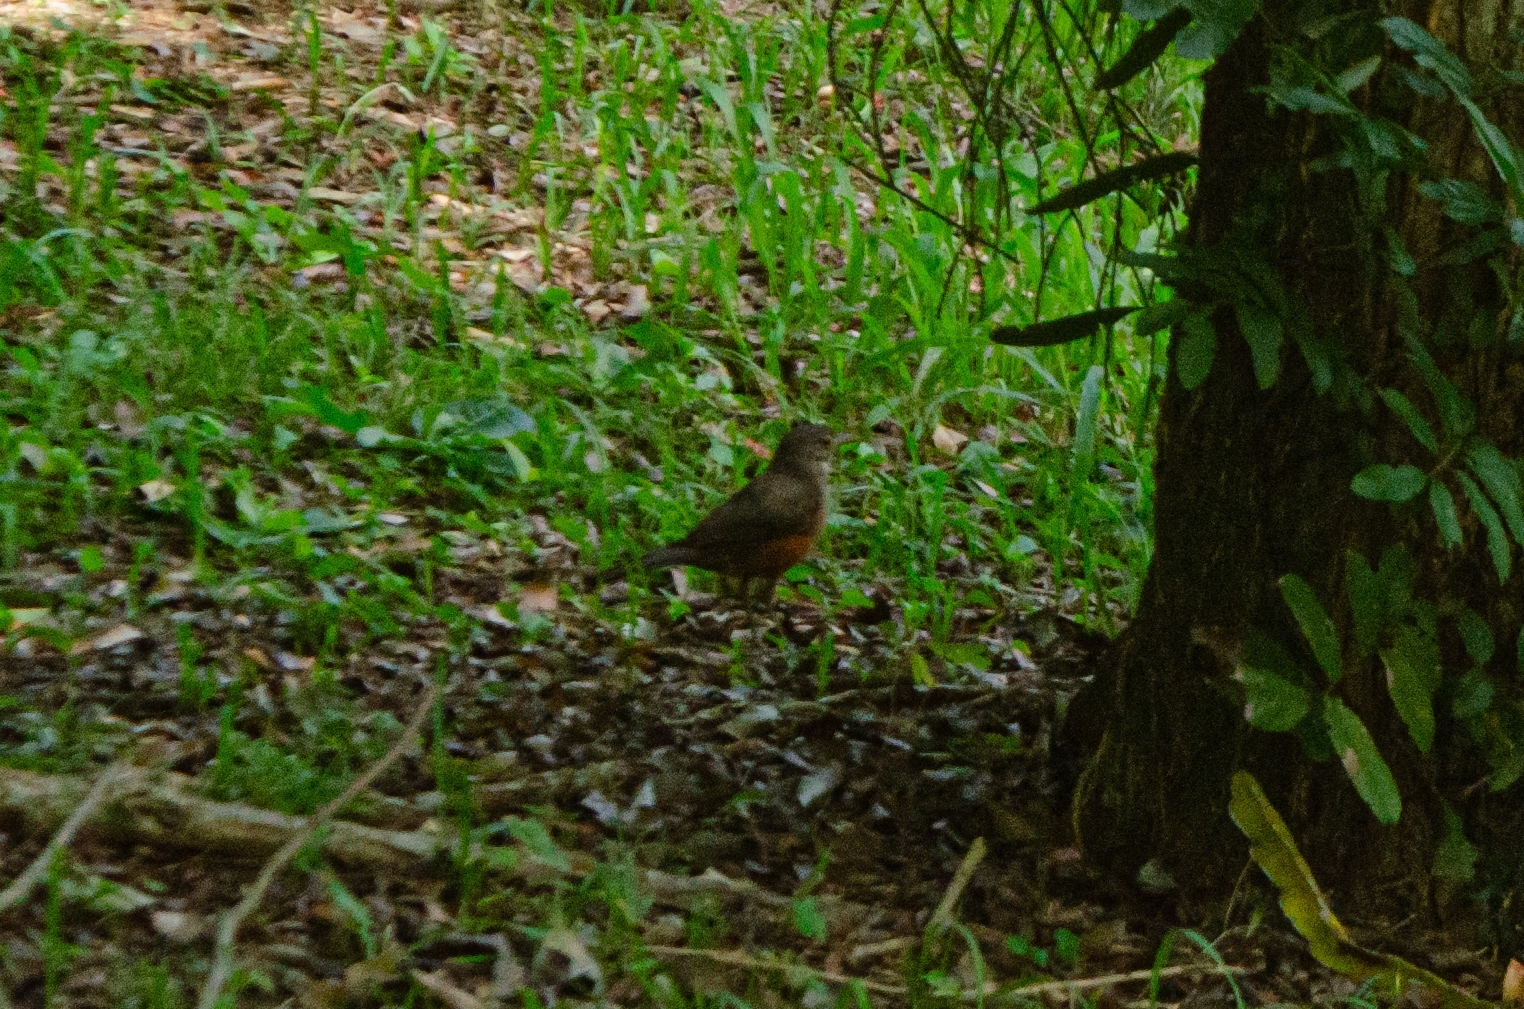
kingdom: Animalia
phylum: Chordata
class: Aves
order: Passeriformes
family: Turdidae
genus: Turdus
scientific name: Turdus rufiventris
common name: Rufous-bellied thrush
